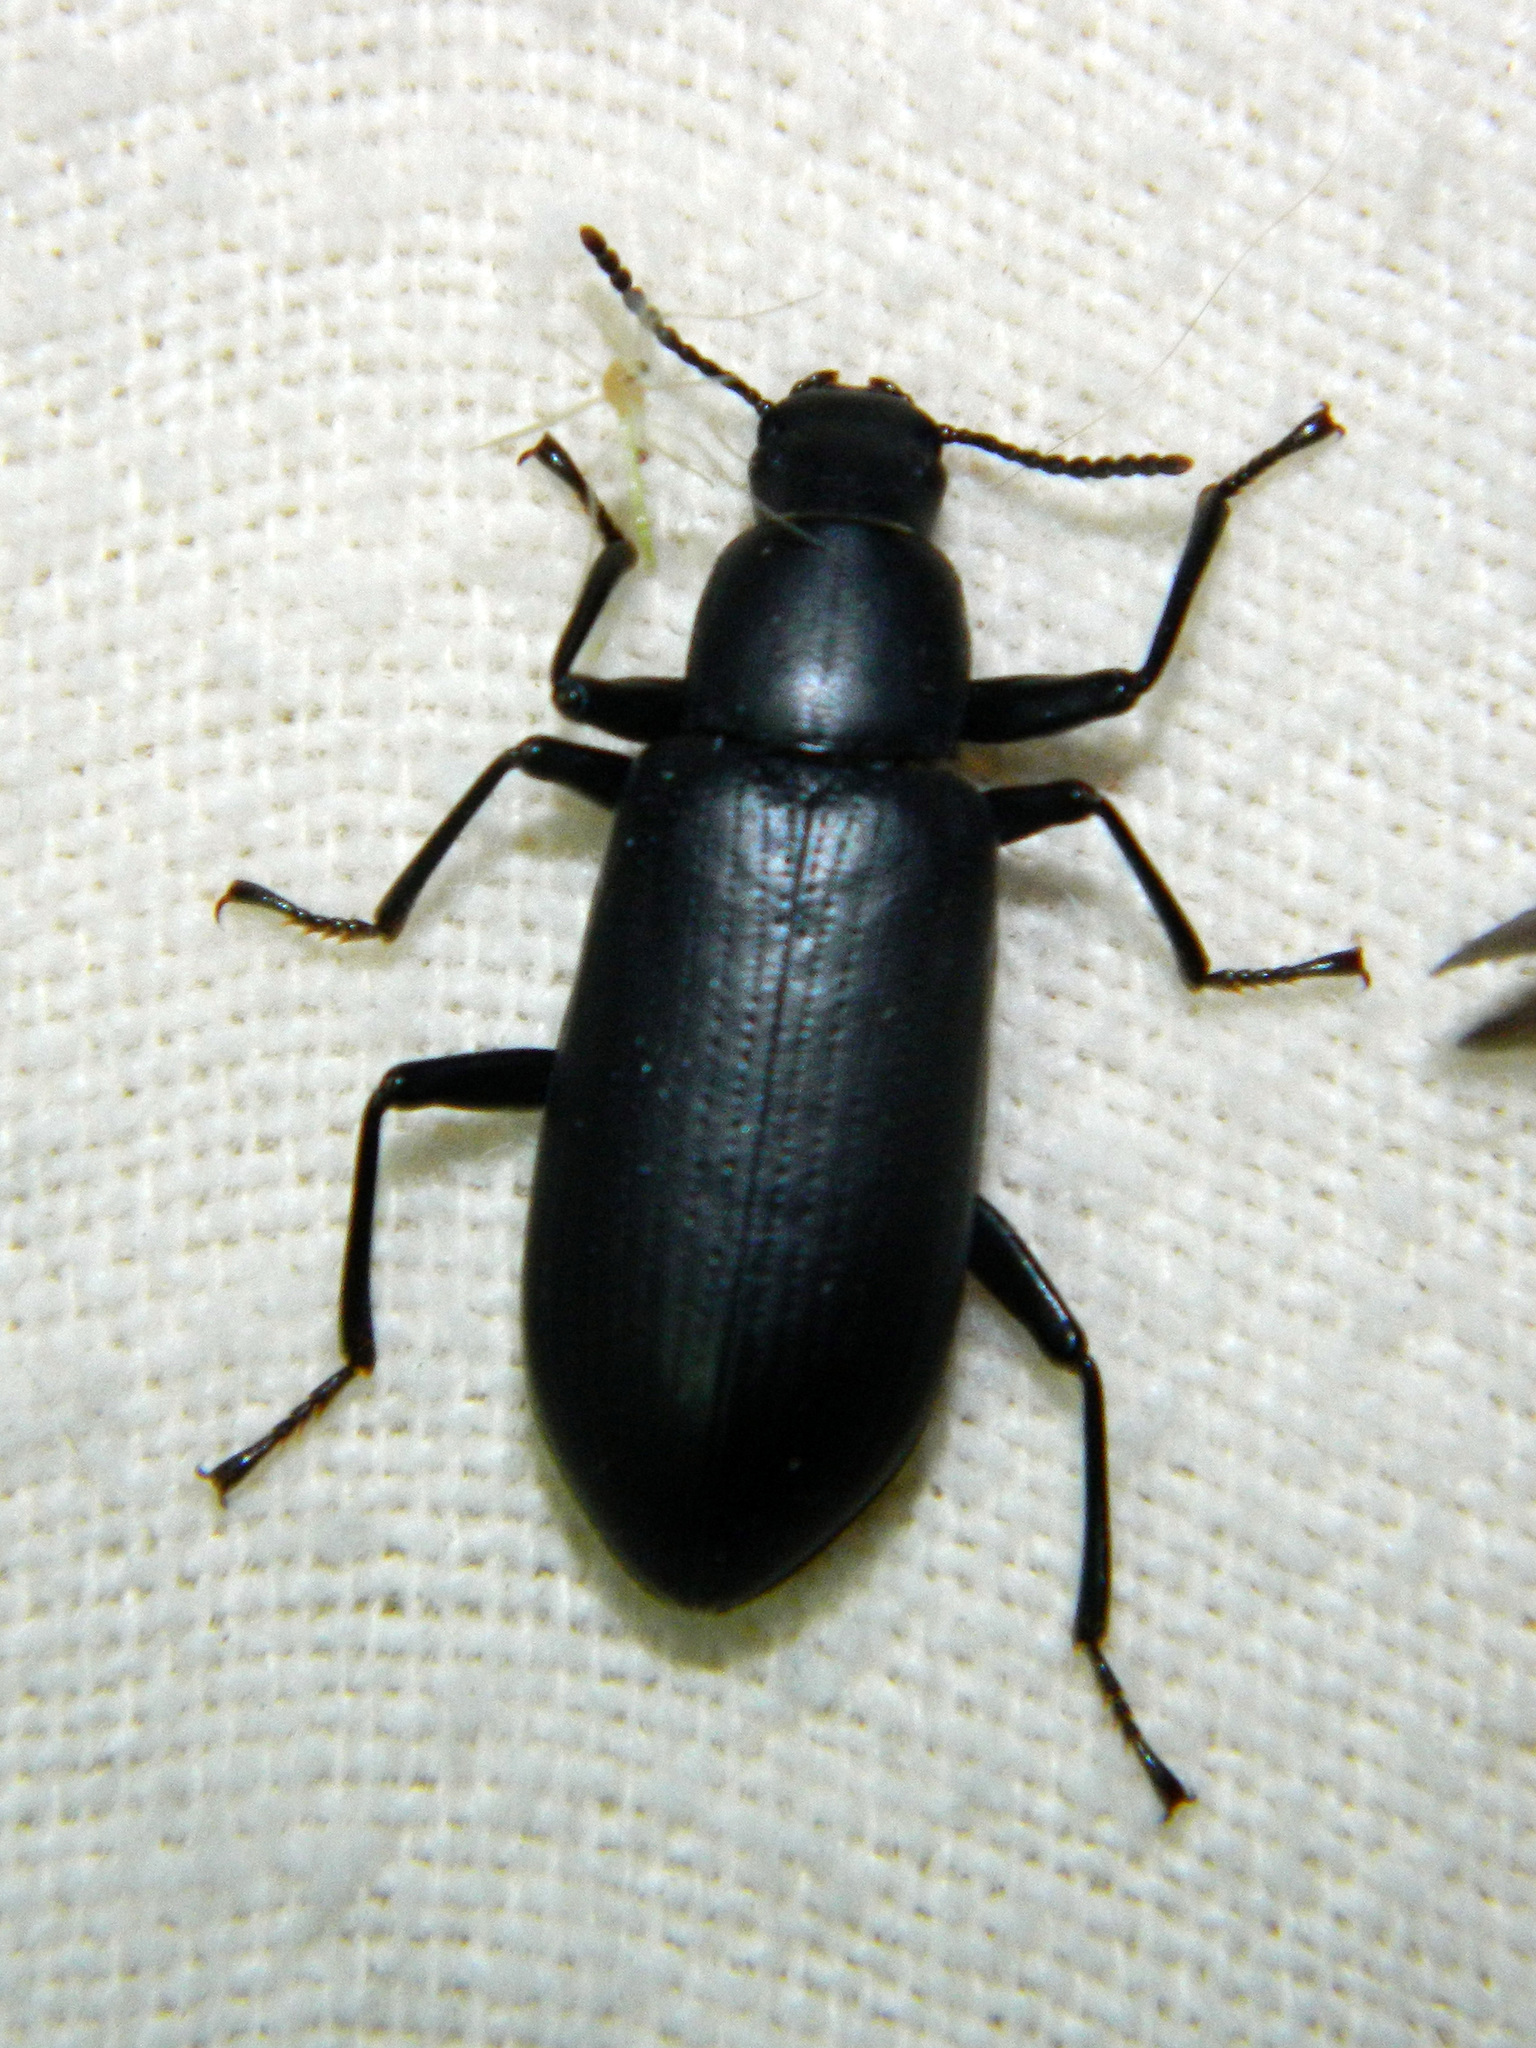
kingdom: Animalia
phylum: Arthropoda
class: Insecta
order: Coleoptera
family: Tenebrionidae
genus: Alobates
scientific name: Alobates pensylvanicus
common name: False mealworm beetle
